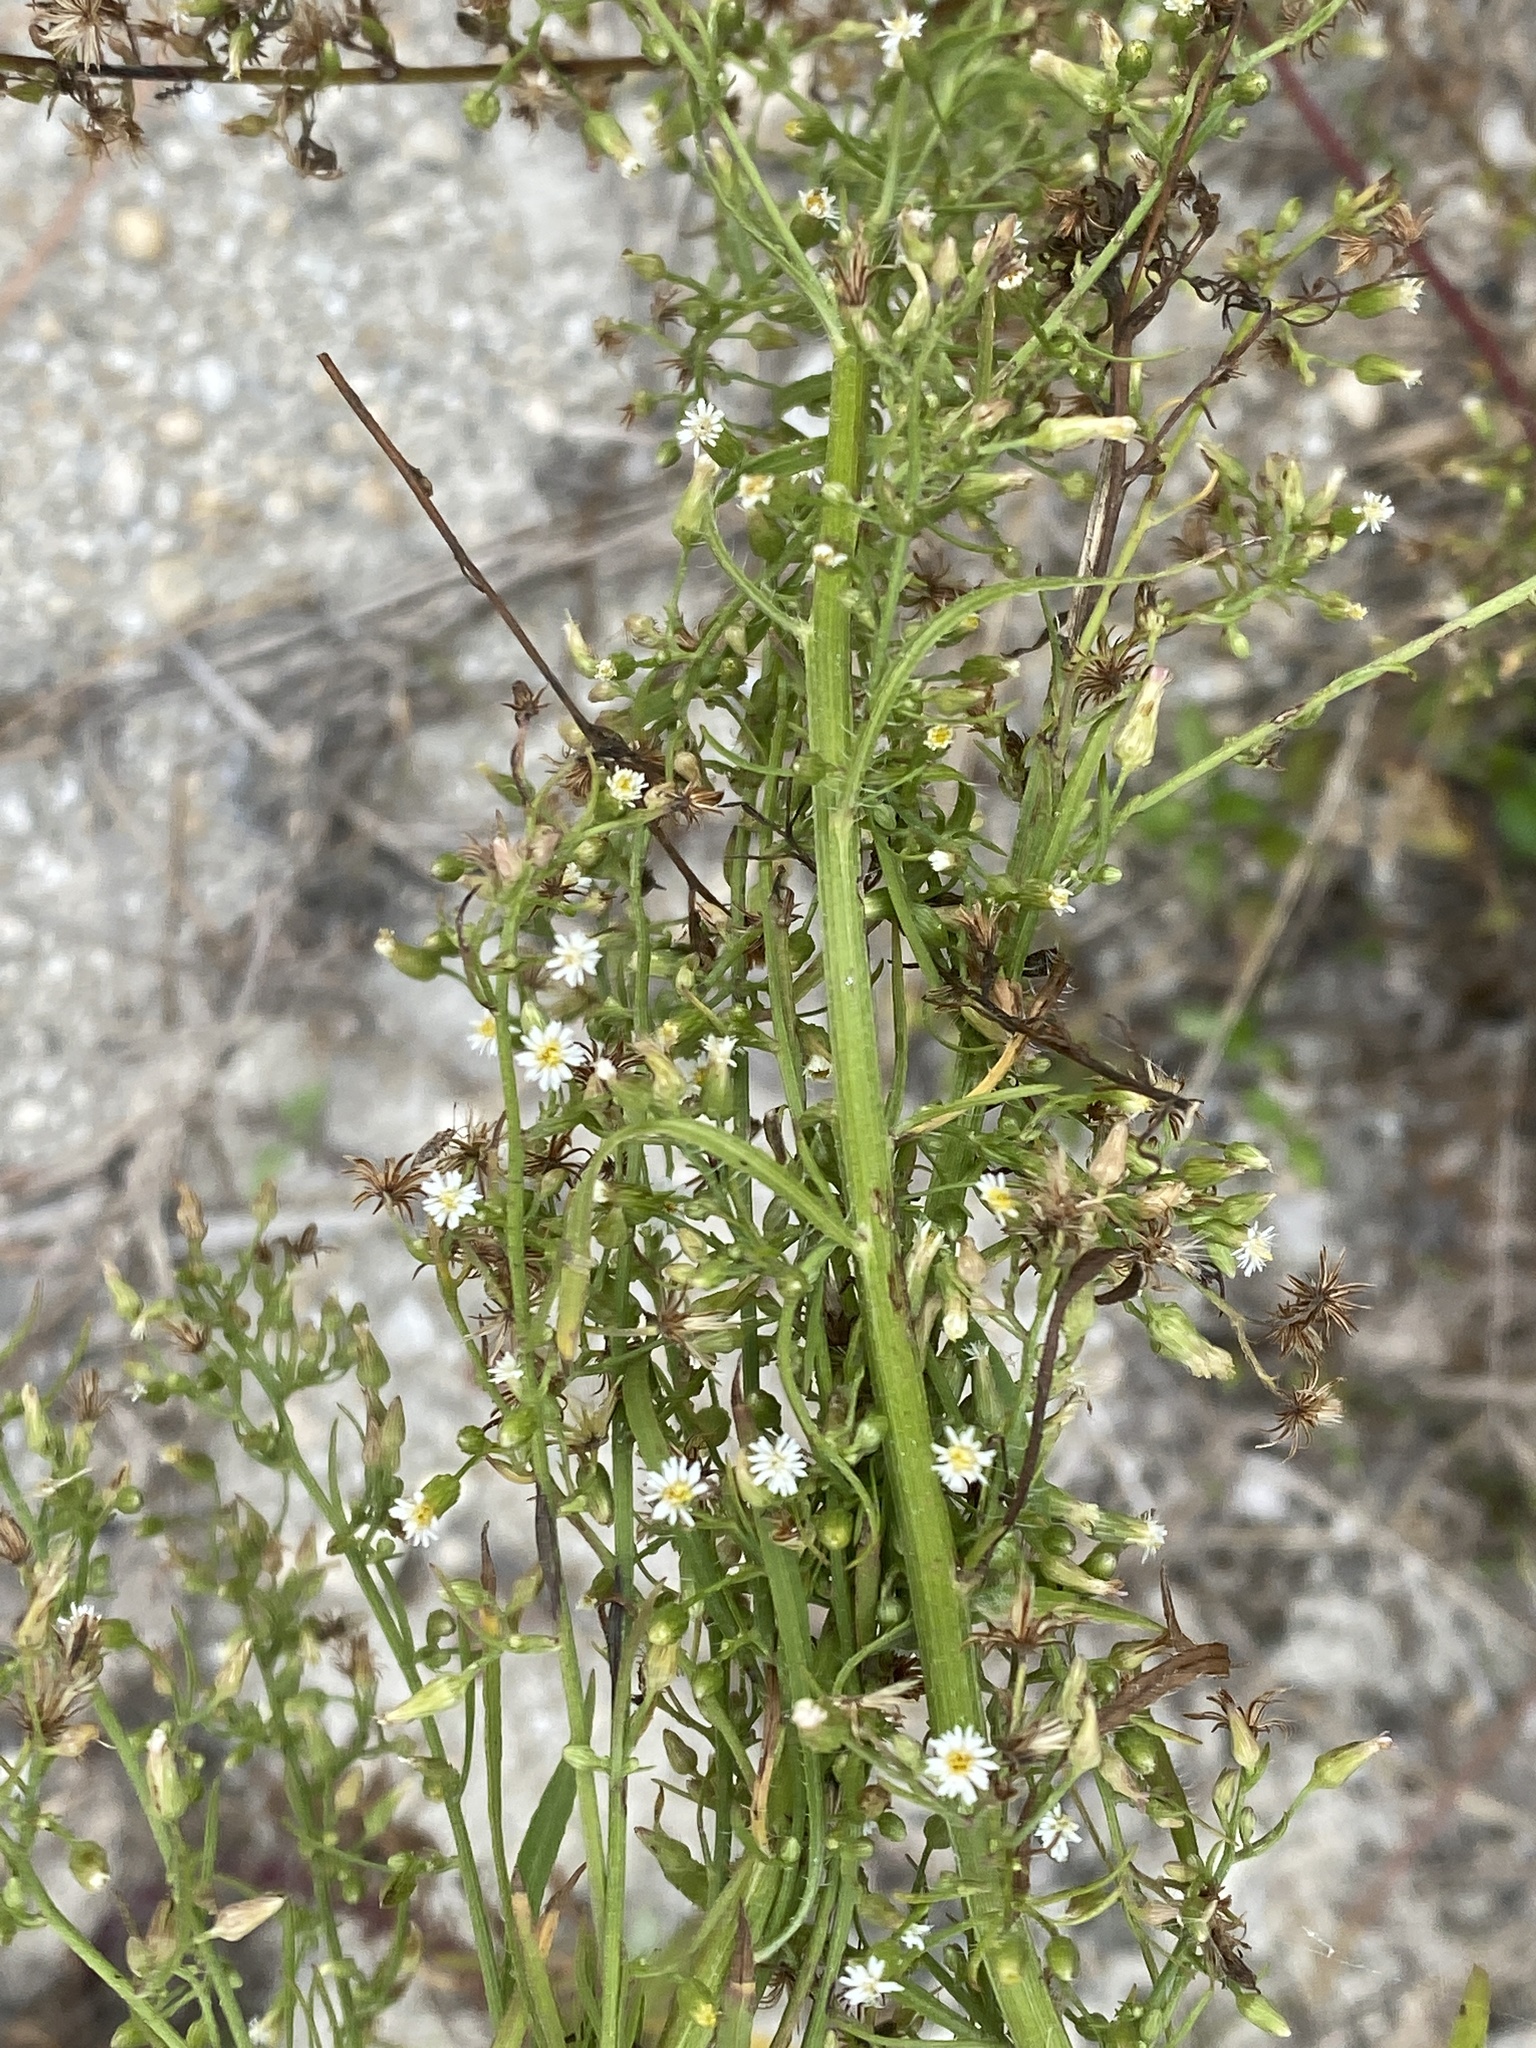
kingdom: Plantae
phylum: Tracheophyta
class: Magnoliopsida
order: Asterales
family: Asteraceae
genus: Erigeron
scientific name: Erigeron canadensis
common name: Canadian fleabane
